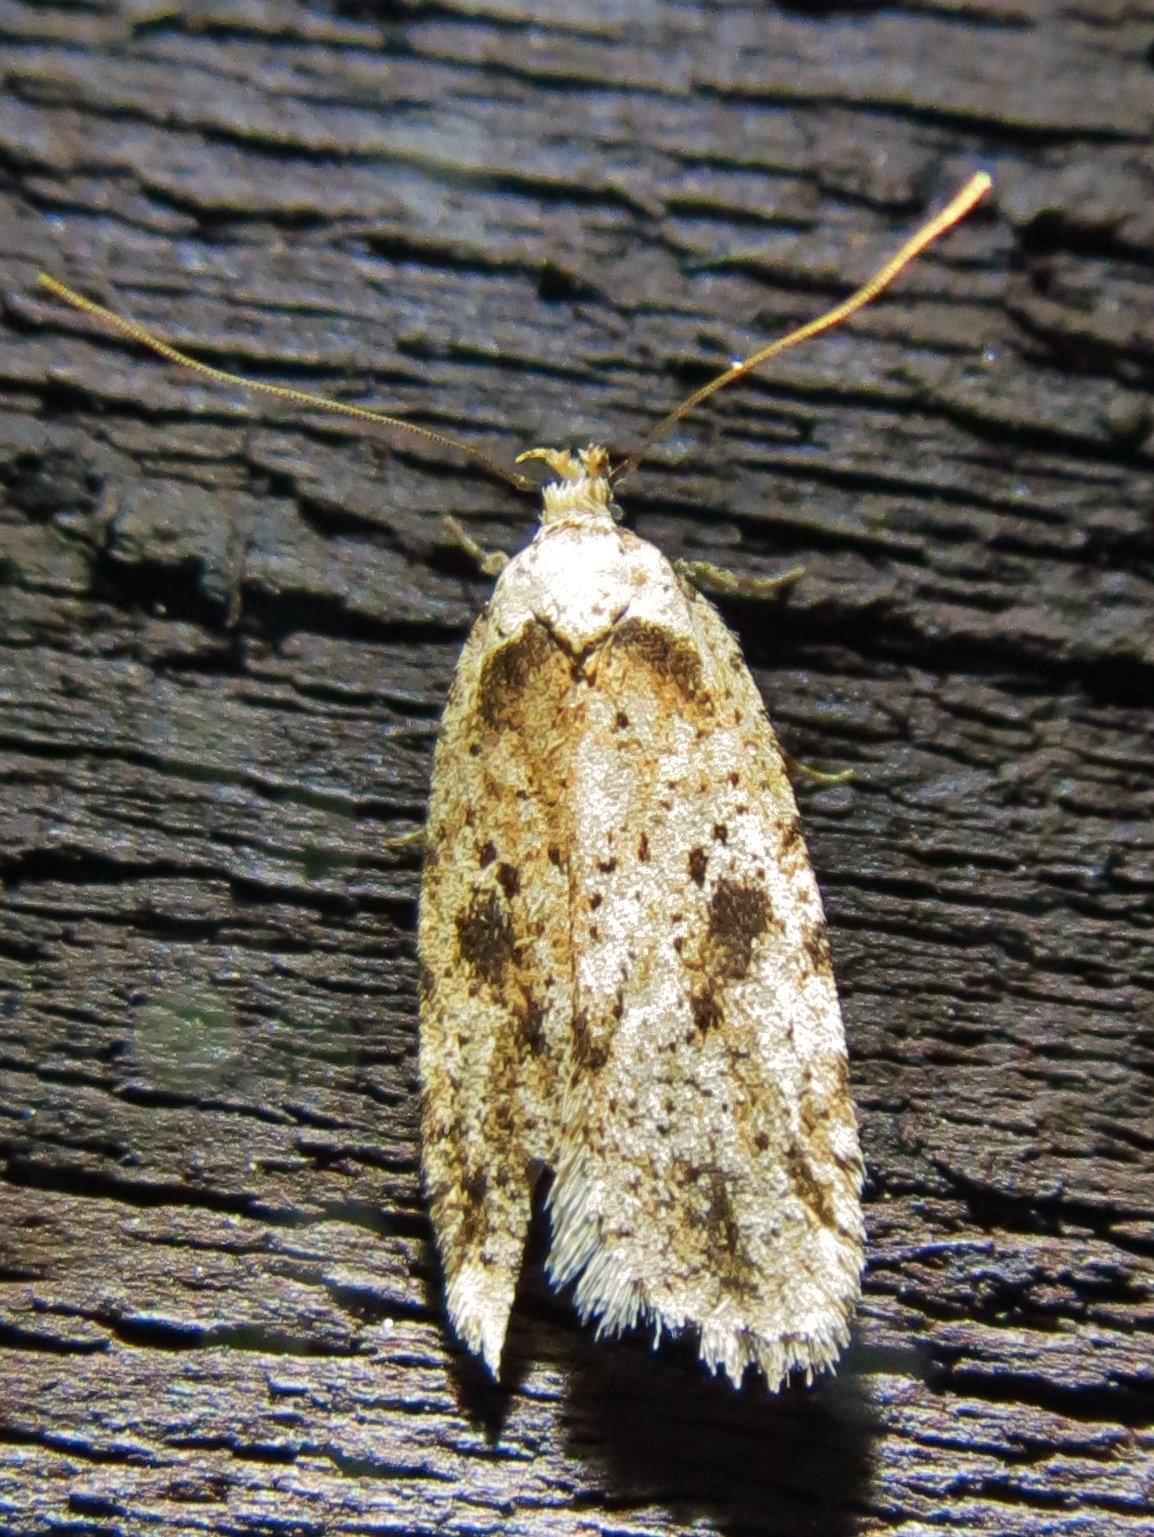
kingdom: Animalia
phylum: Arthropoda
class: Insecta
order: Lepidoptera
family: Depressariidae
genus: Agonopterix
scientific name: Agonopterix arenella
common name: Brindled flat-body
